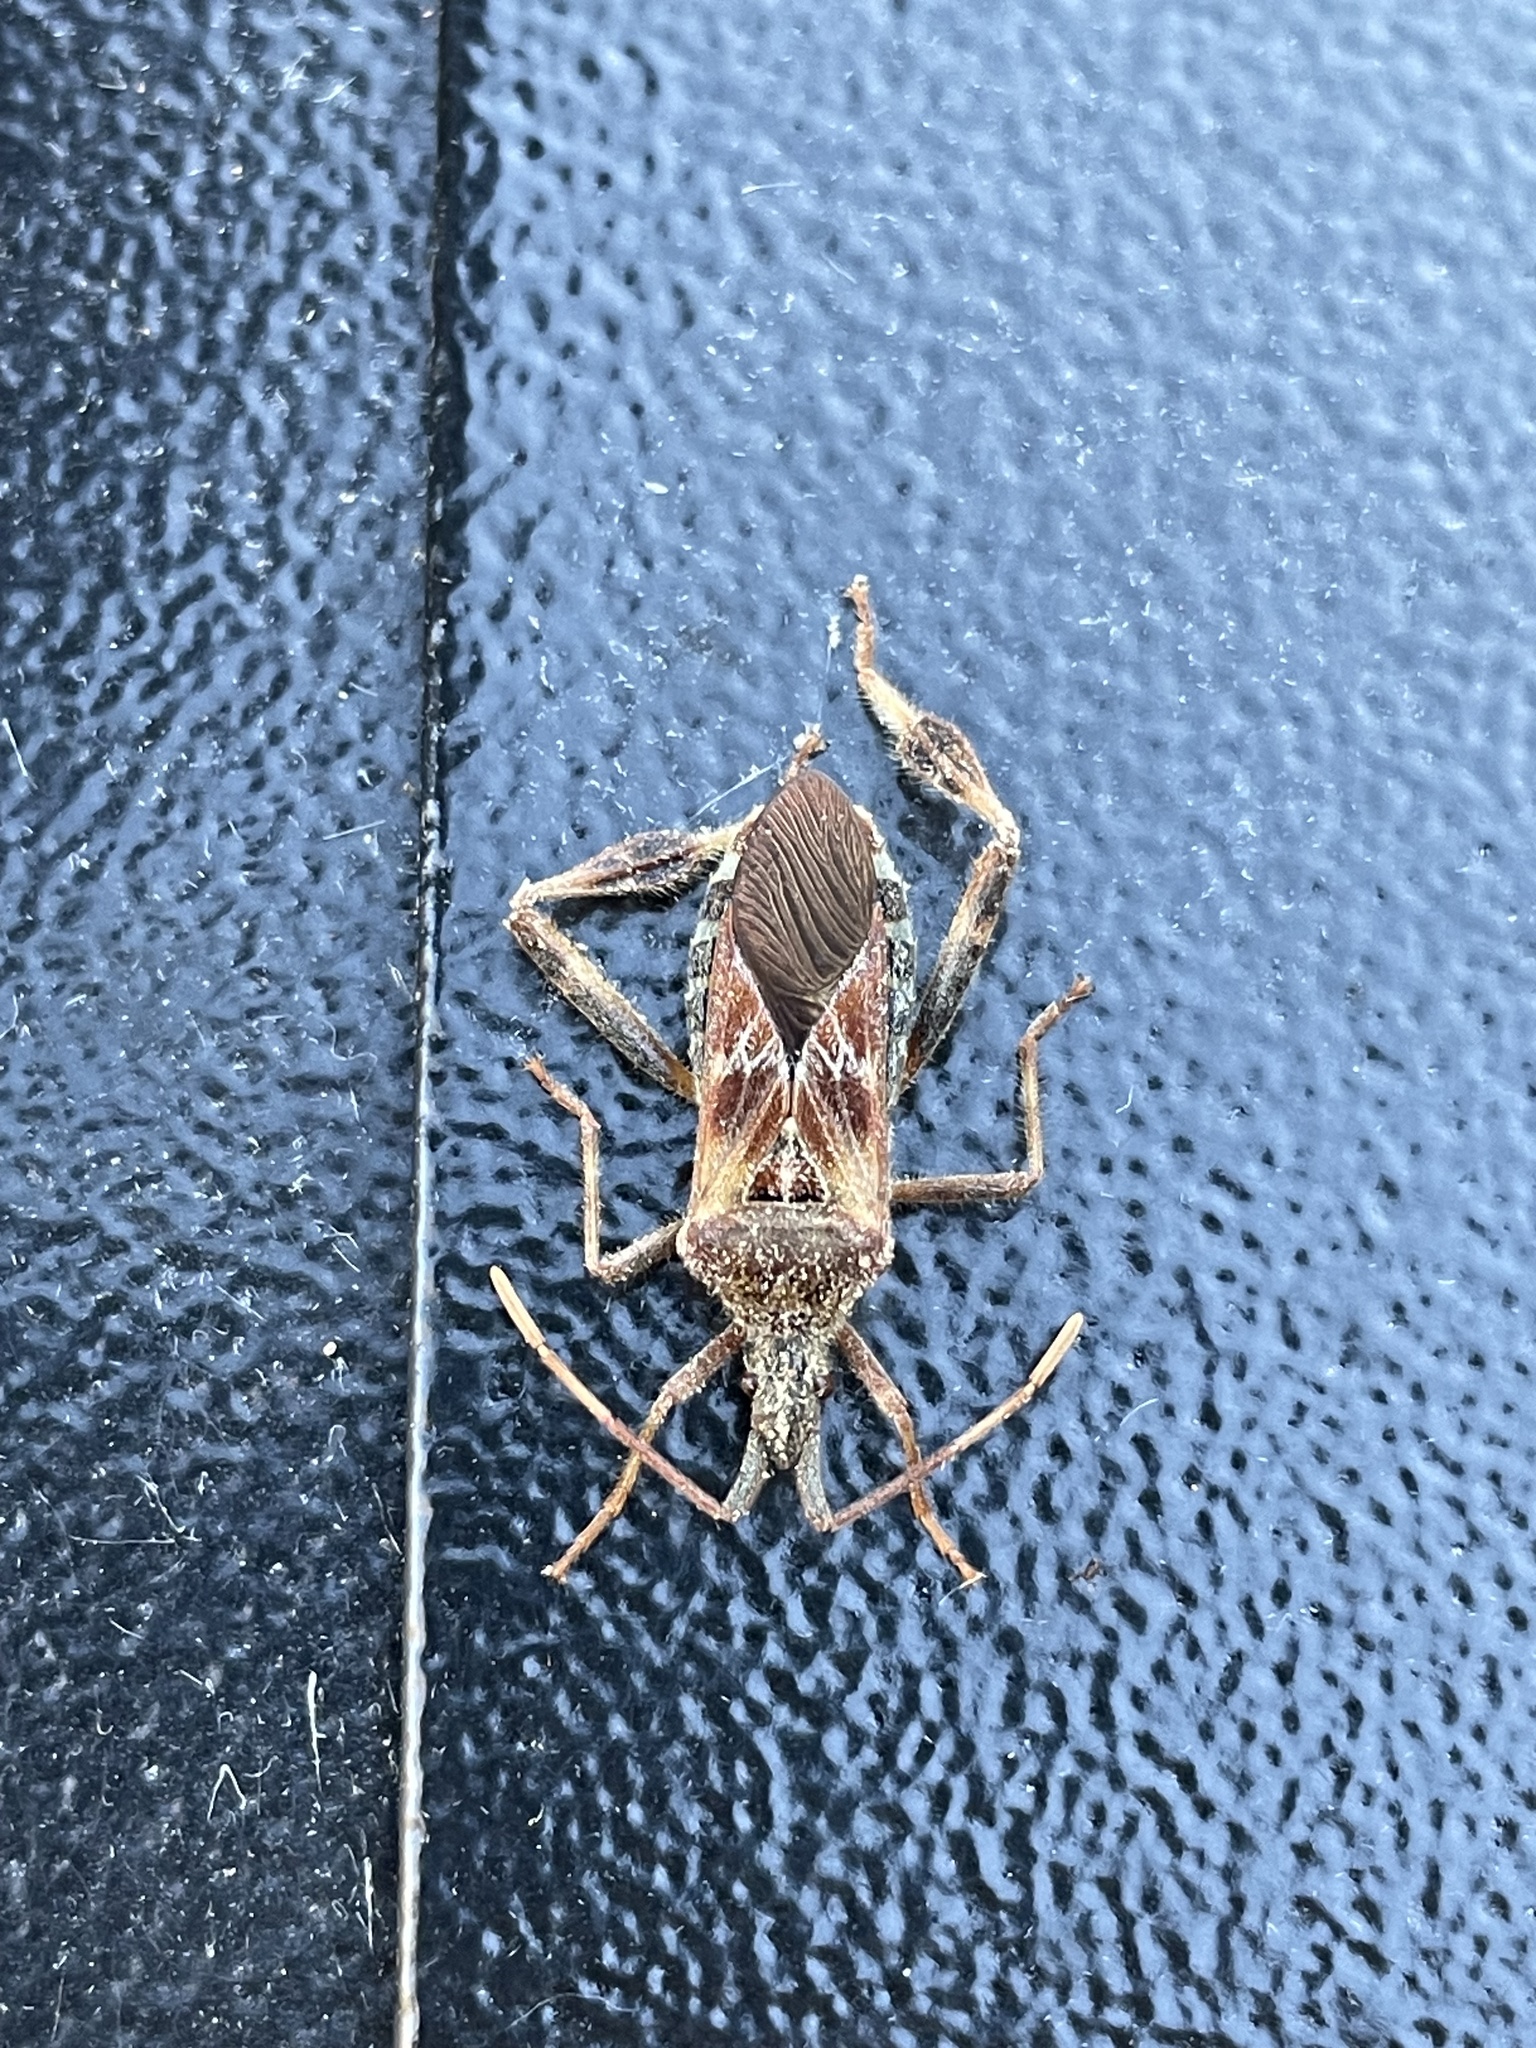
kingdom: Animalia
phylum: Arthropoda
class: Insecta
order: Hemiptera
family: Coreidae
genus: Leptoglossus
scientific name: Leptoglossus occidentalis
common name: Western conifer-seed bug
